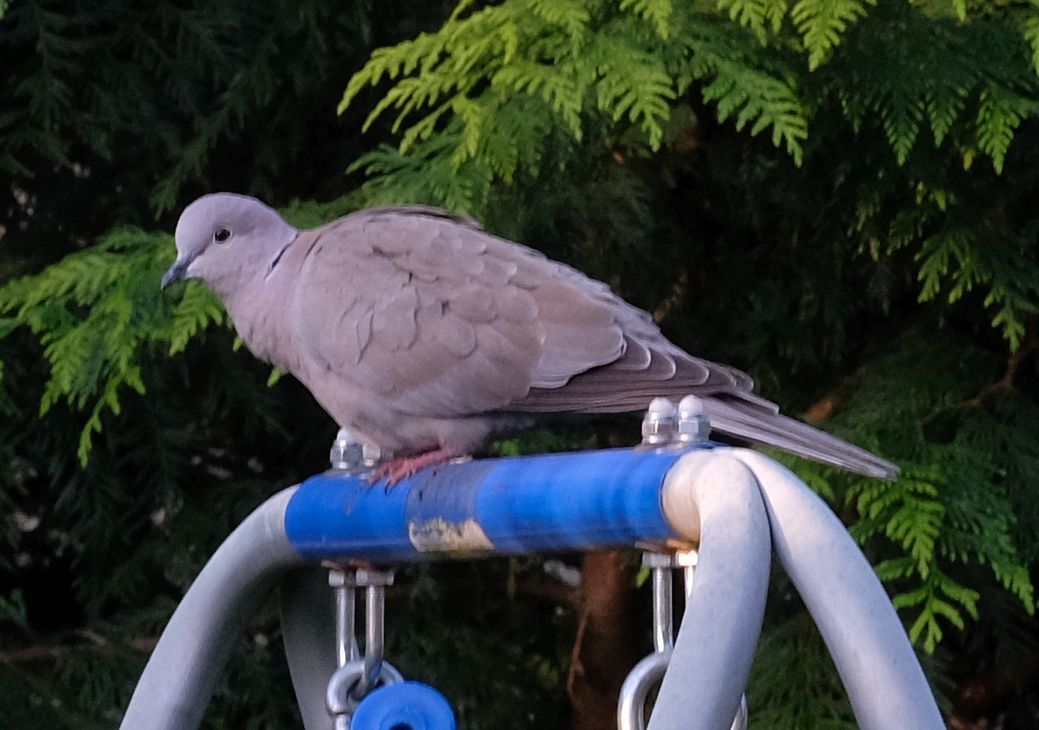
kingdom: Animalia
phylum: Chordata
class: Aves
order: Columbiformes
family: Columbidae
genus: Streptopelia
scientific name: Streptopelia decaocto
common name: Eurasian collared dove
